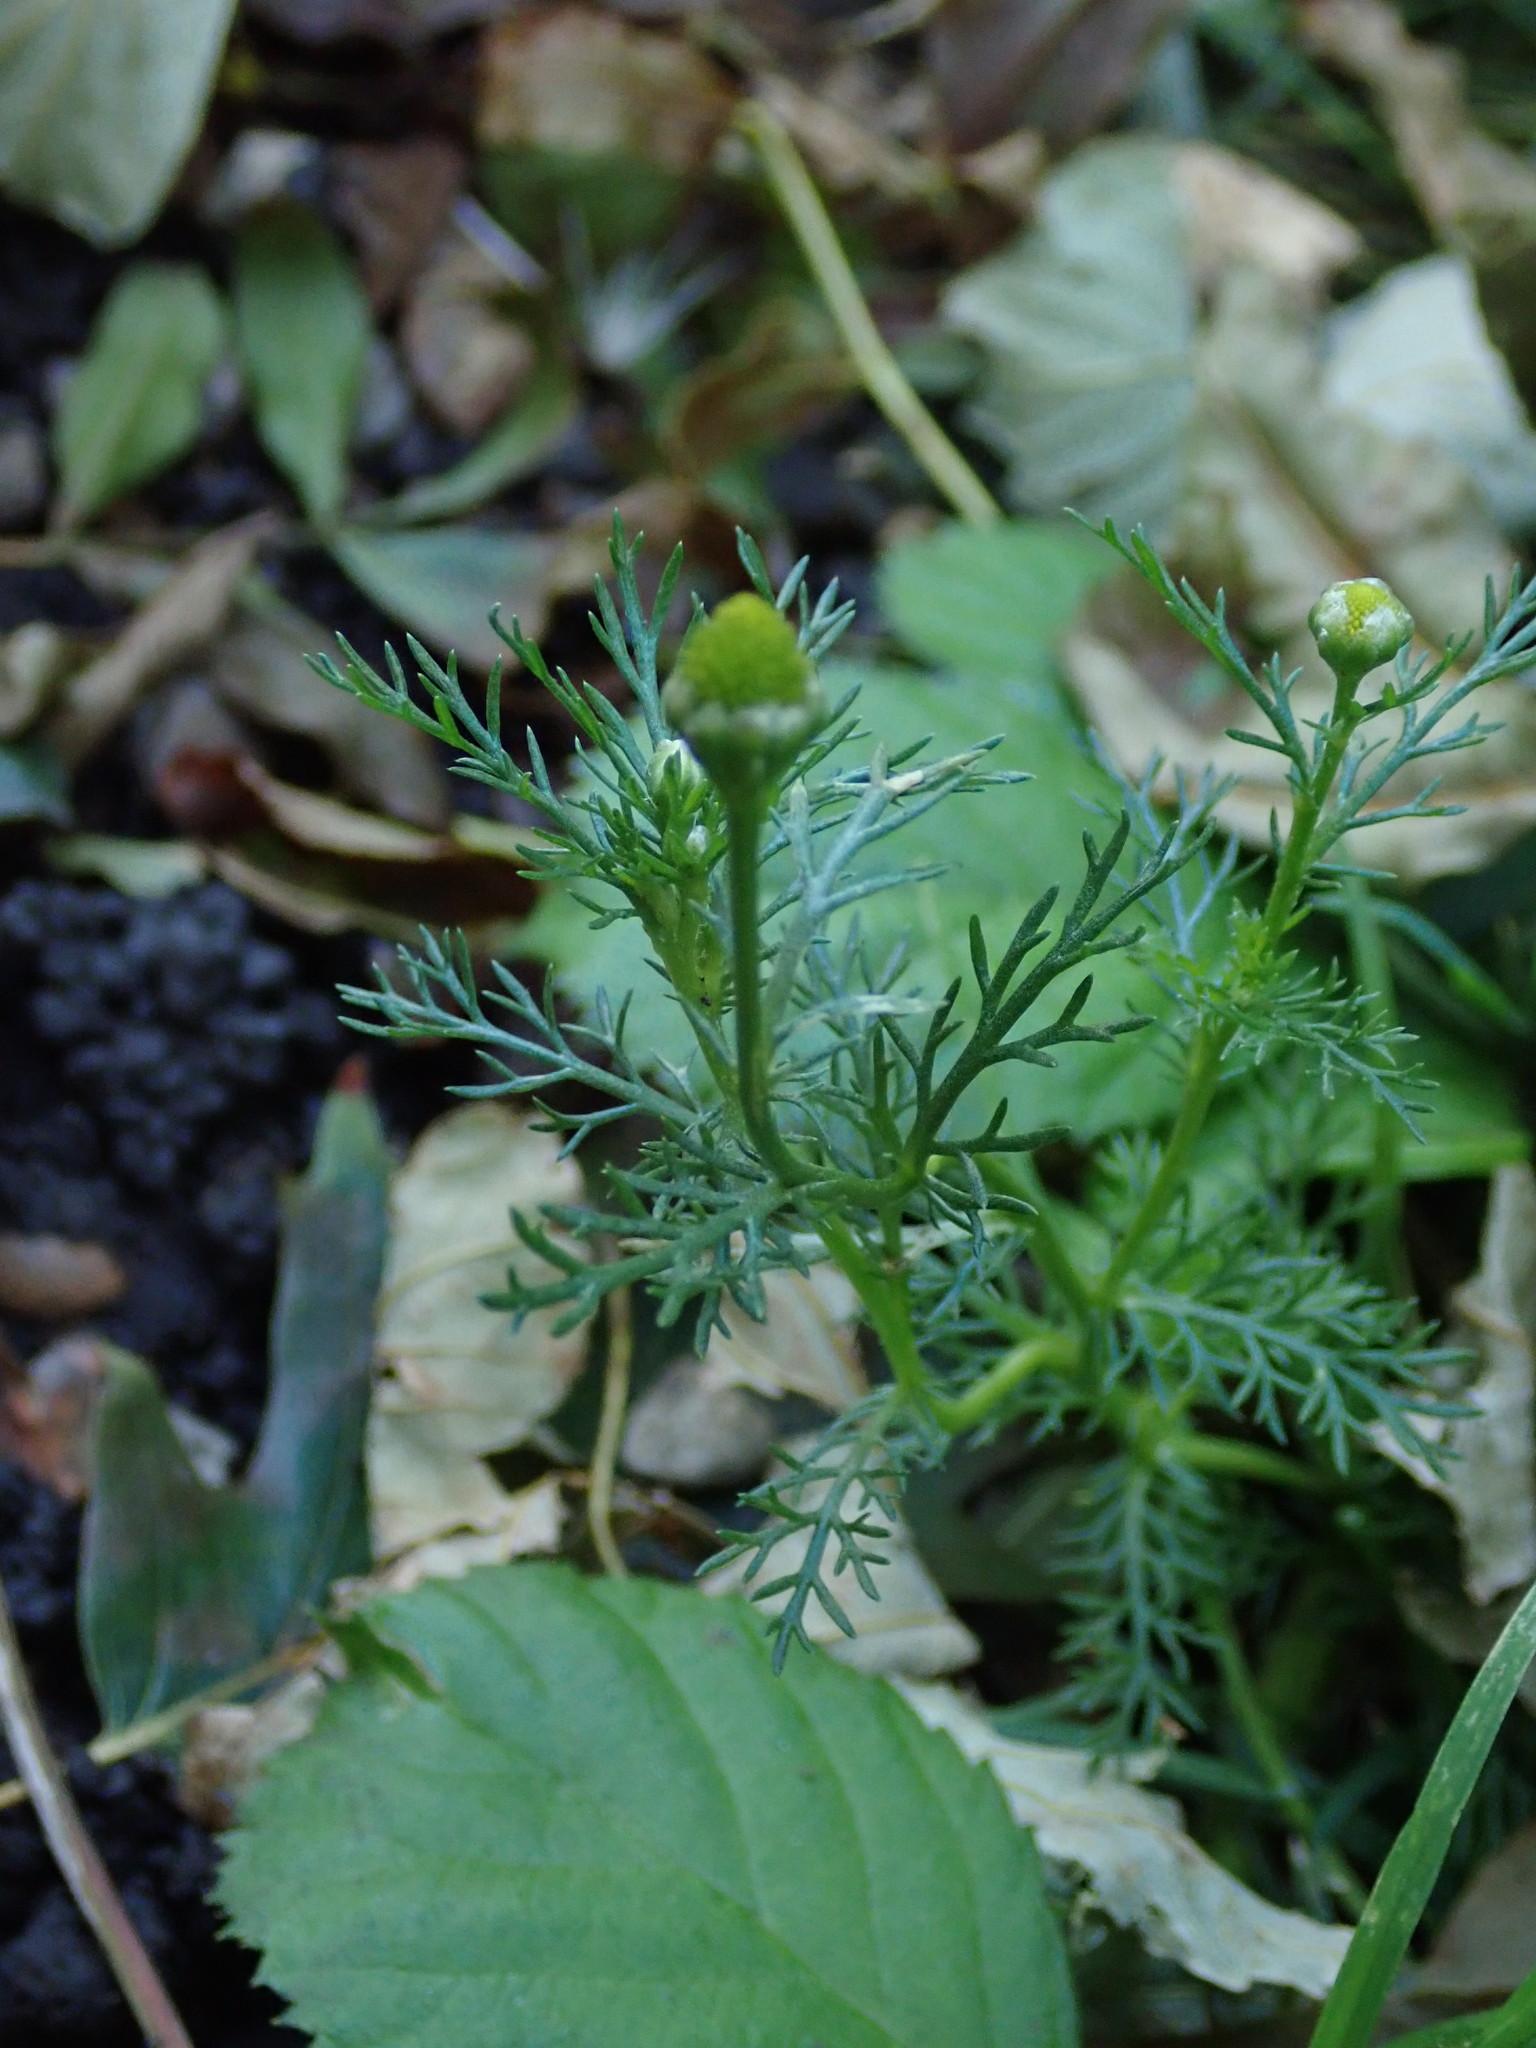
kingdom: Plantae
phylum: Tracheophyta
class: Magnoliopsida
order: Asterales
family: Asteraceae
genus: Matricaria
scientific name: Matricaria discoidea
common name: Disc mayweed
